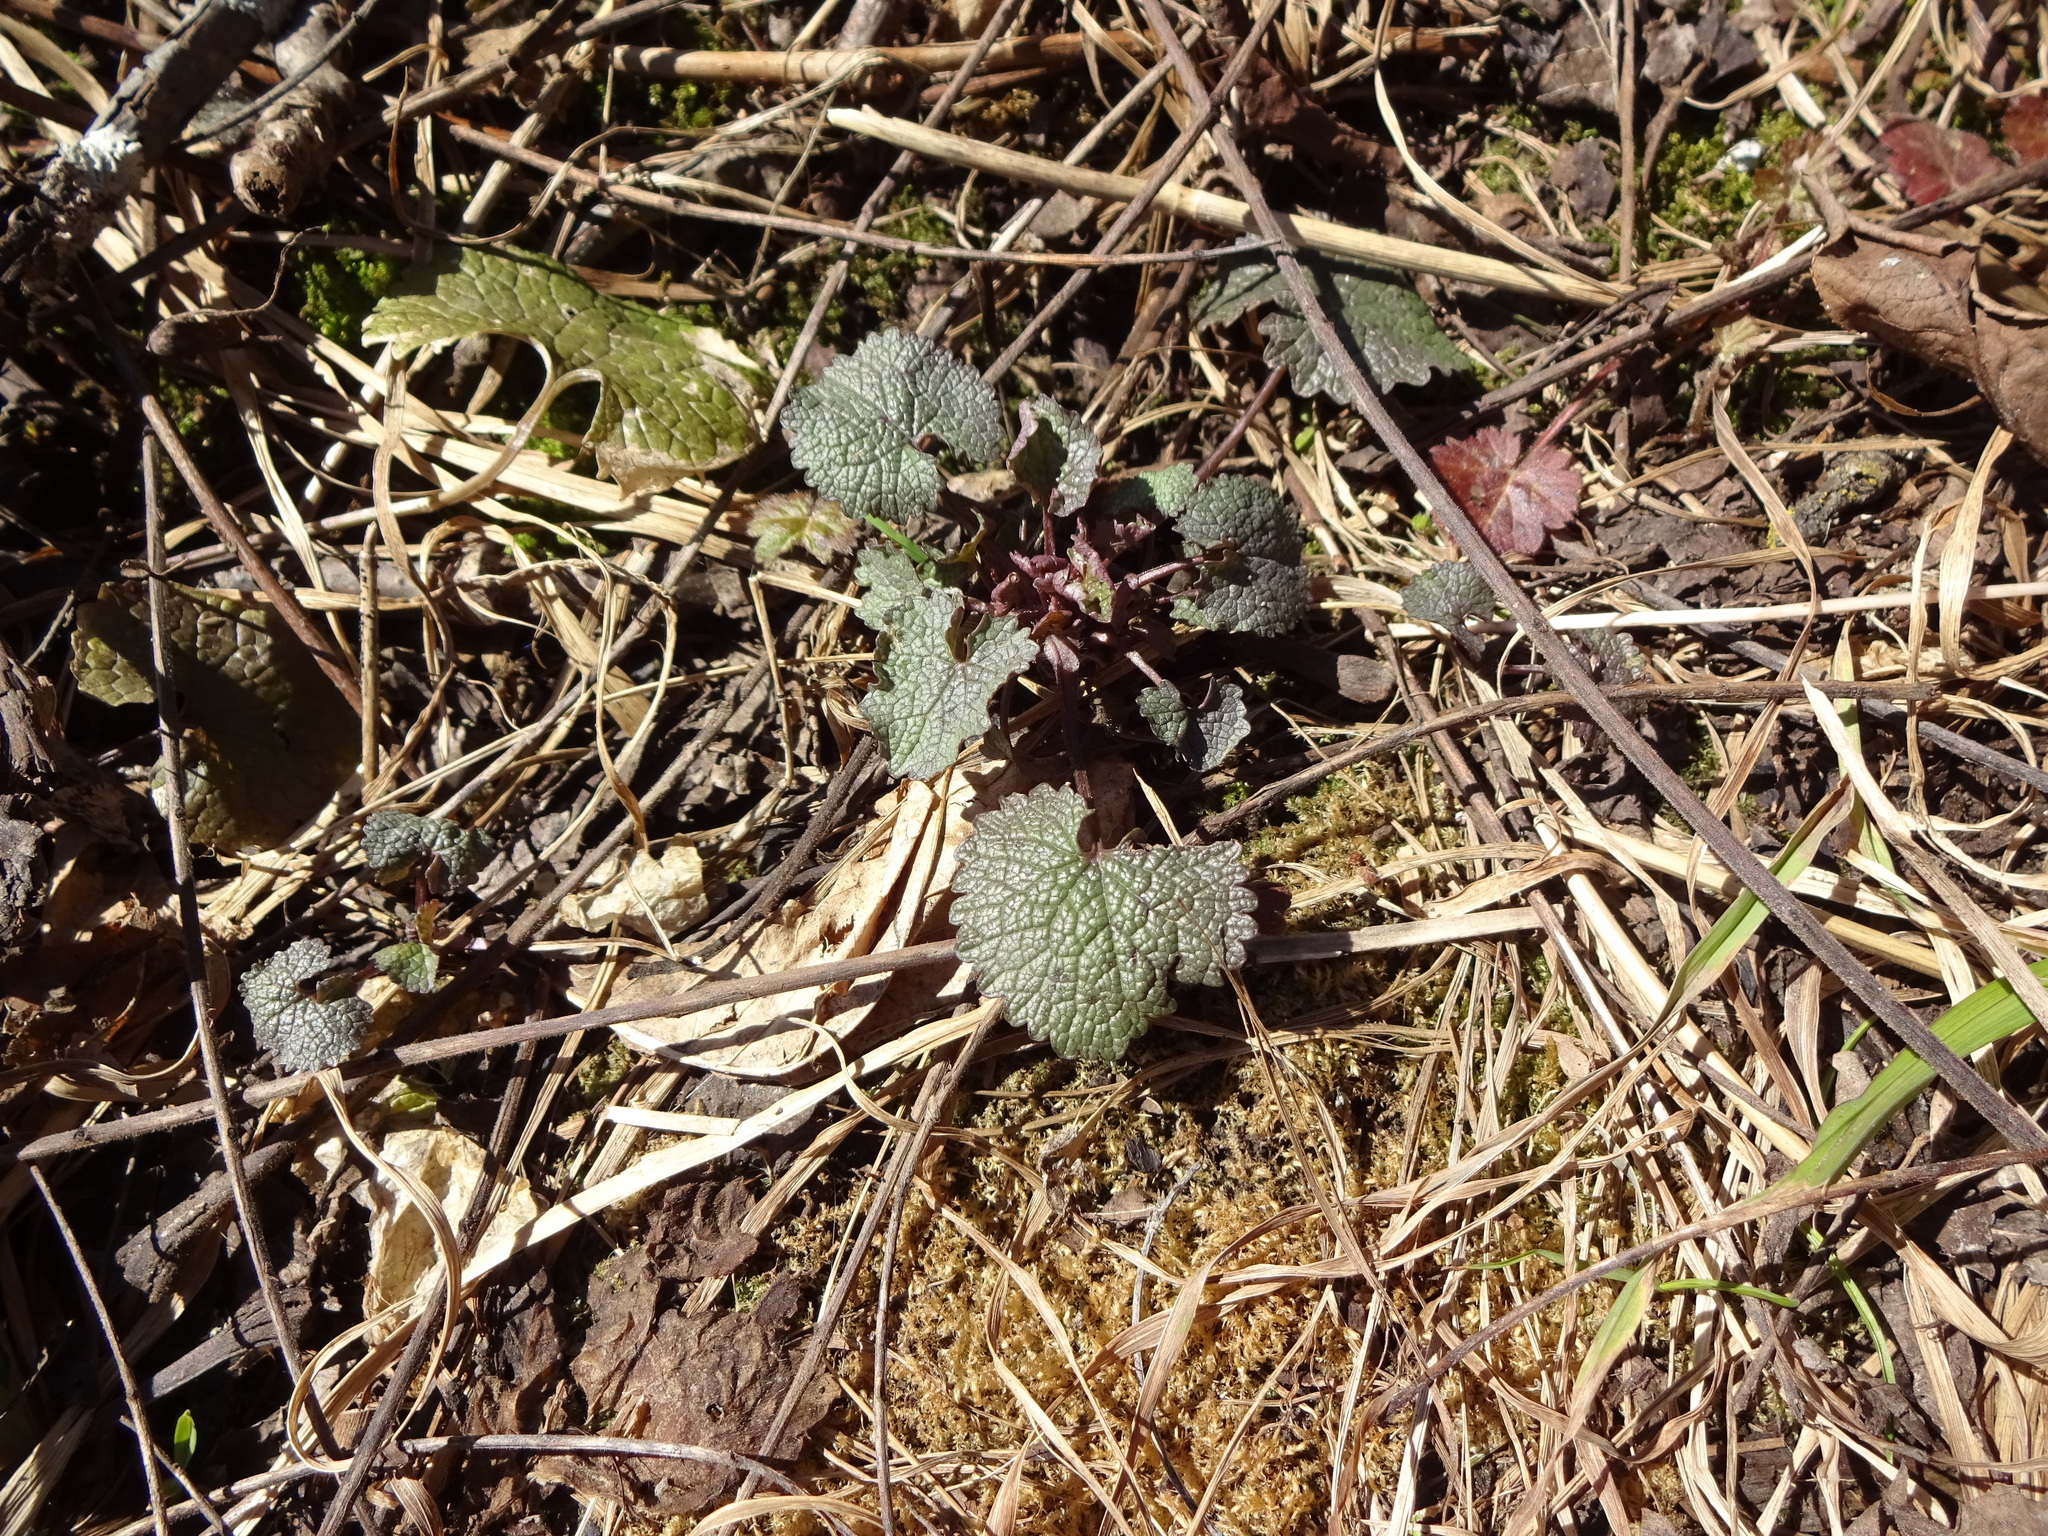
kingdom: Plantae
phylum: Tracheophyta
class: Magnoliopsida
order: Brassicales
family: Brassicaceae
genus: Alliaria
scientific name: Alliaria petiolata
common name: Garlic mustard
